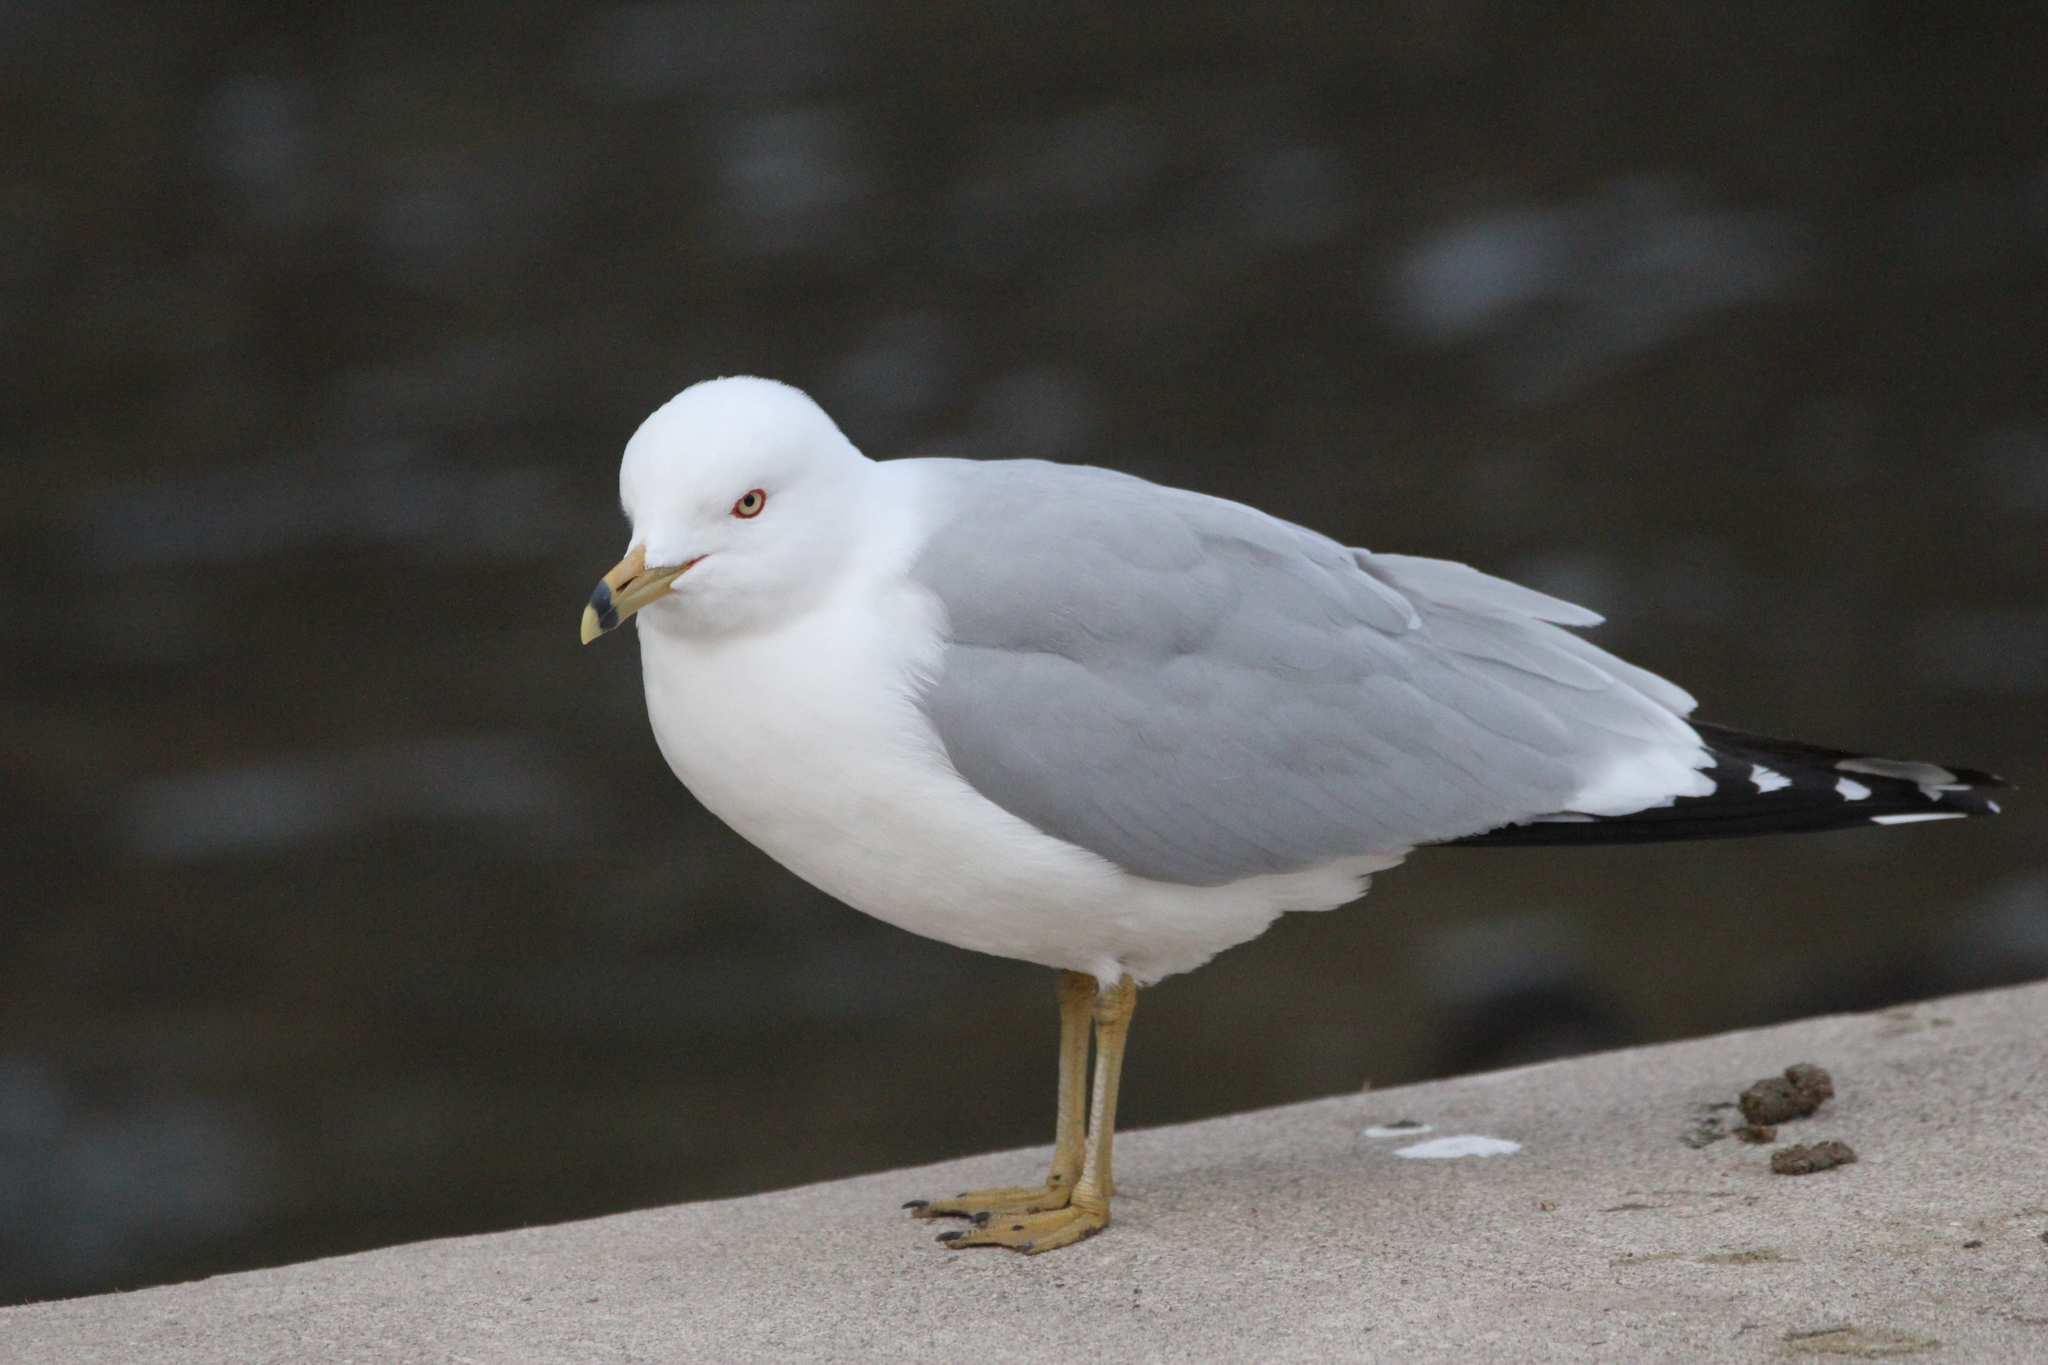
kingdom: Animalia
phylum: Chordata
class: Aves
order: Charadriiformes
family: Laridae
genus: Larus
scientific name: Larus delawarensis
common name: Ring-billed gull
